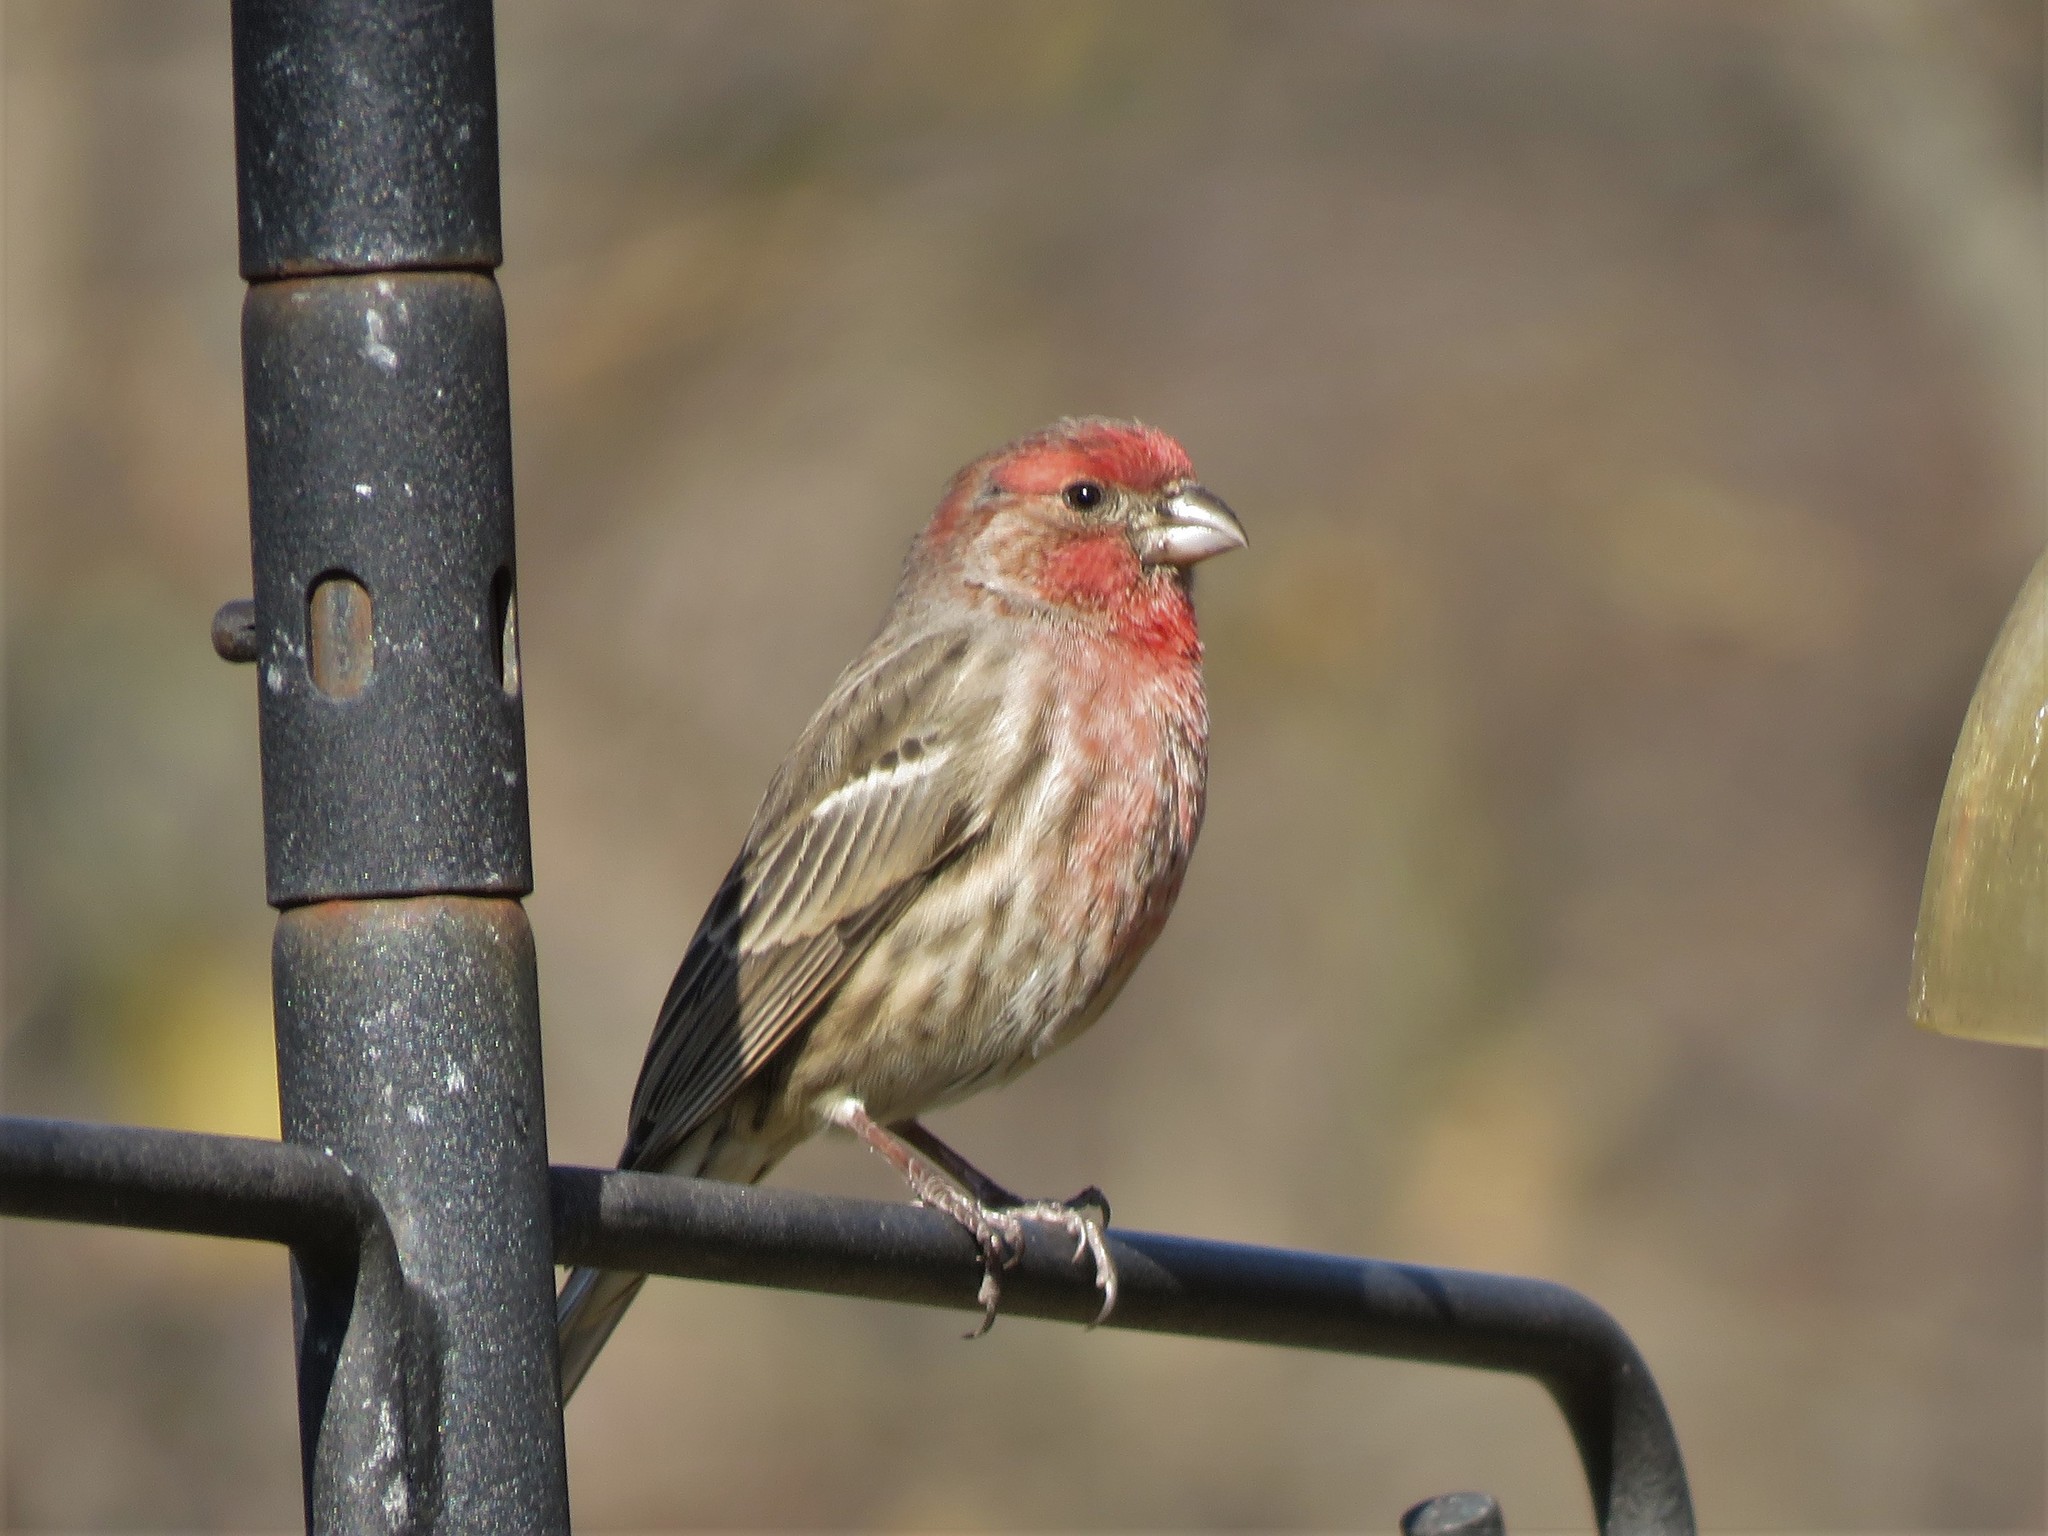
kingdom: Animalia
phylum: Chordata
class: Aves
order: Passeriformes
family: Fringillidae
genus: Haemorhous
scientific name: Haemorhous mexicanus
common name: House finch
